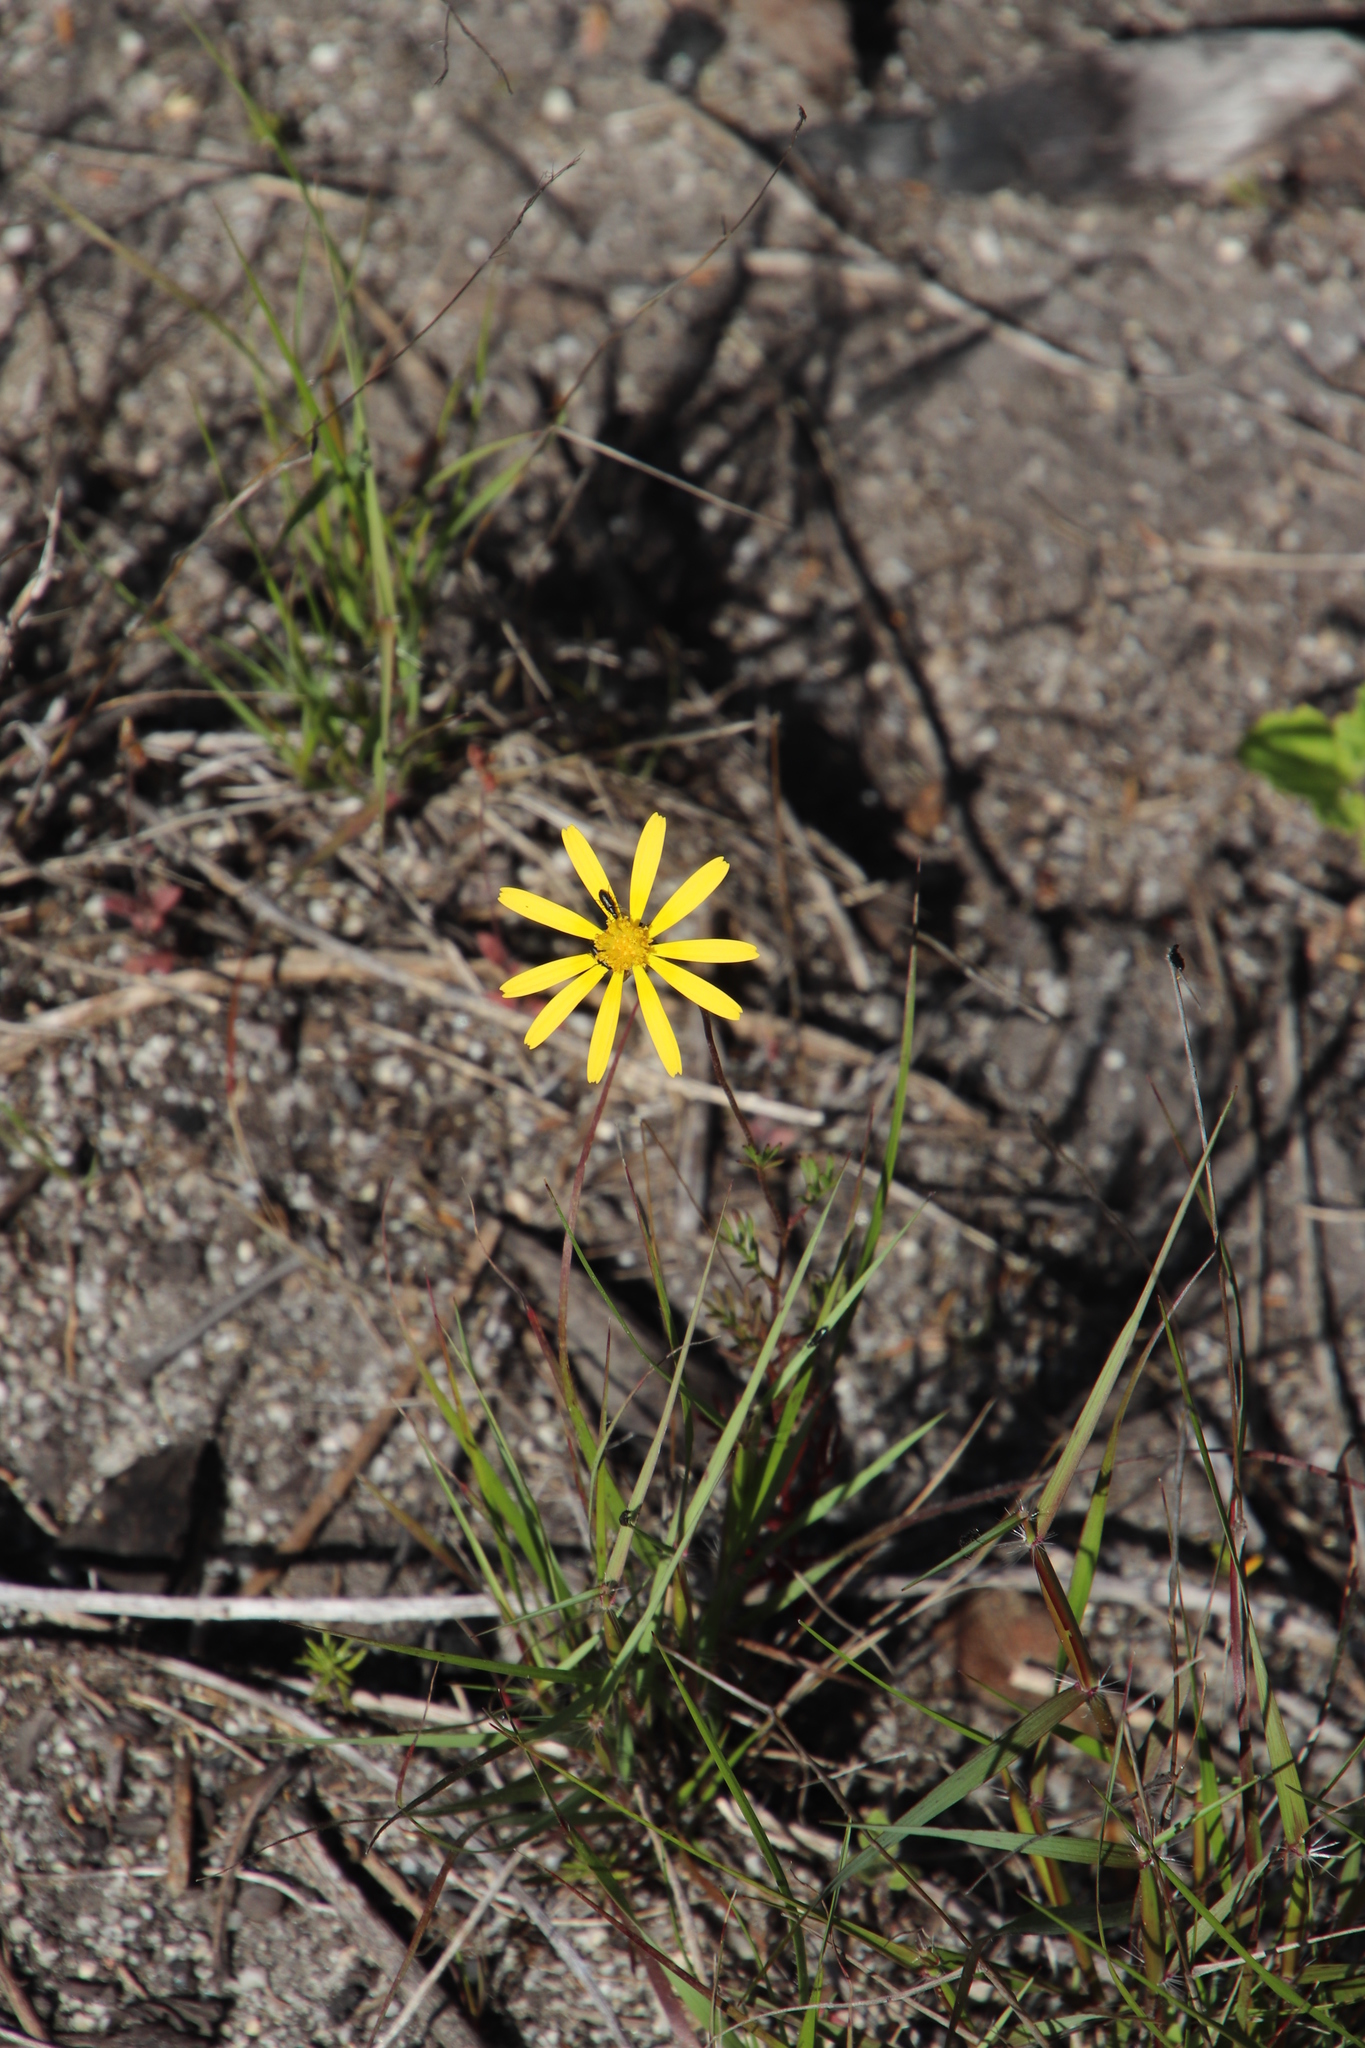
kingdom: Plantae
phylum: Tracheophyta
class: Magnoliopsida
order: Asterales
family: Asteraceae
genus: Ursinia
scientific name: Ursinia anthemoides
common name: Ursinia
